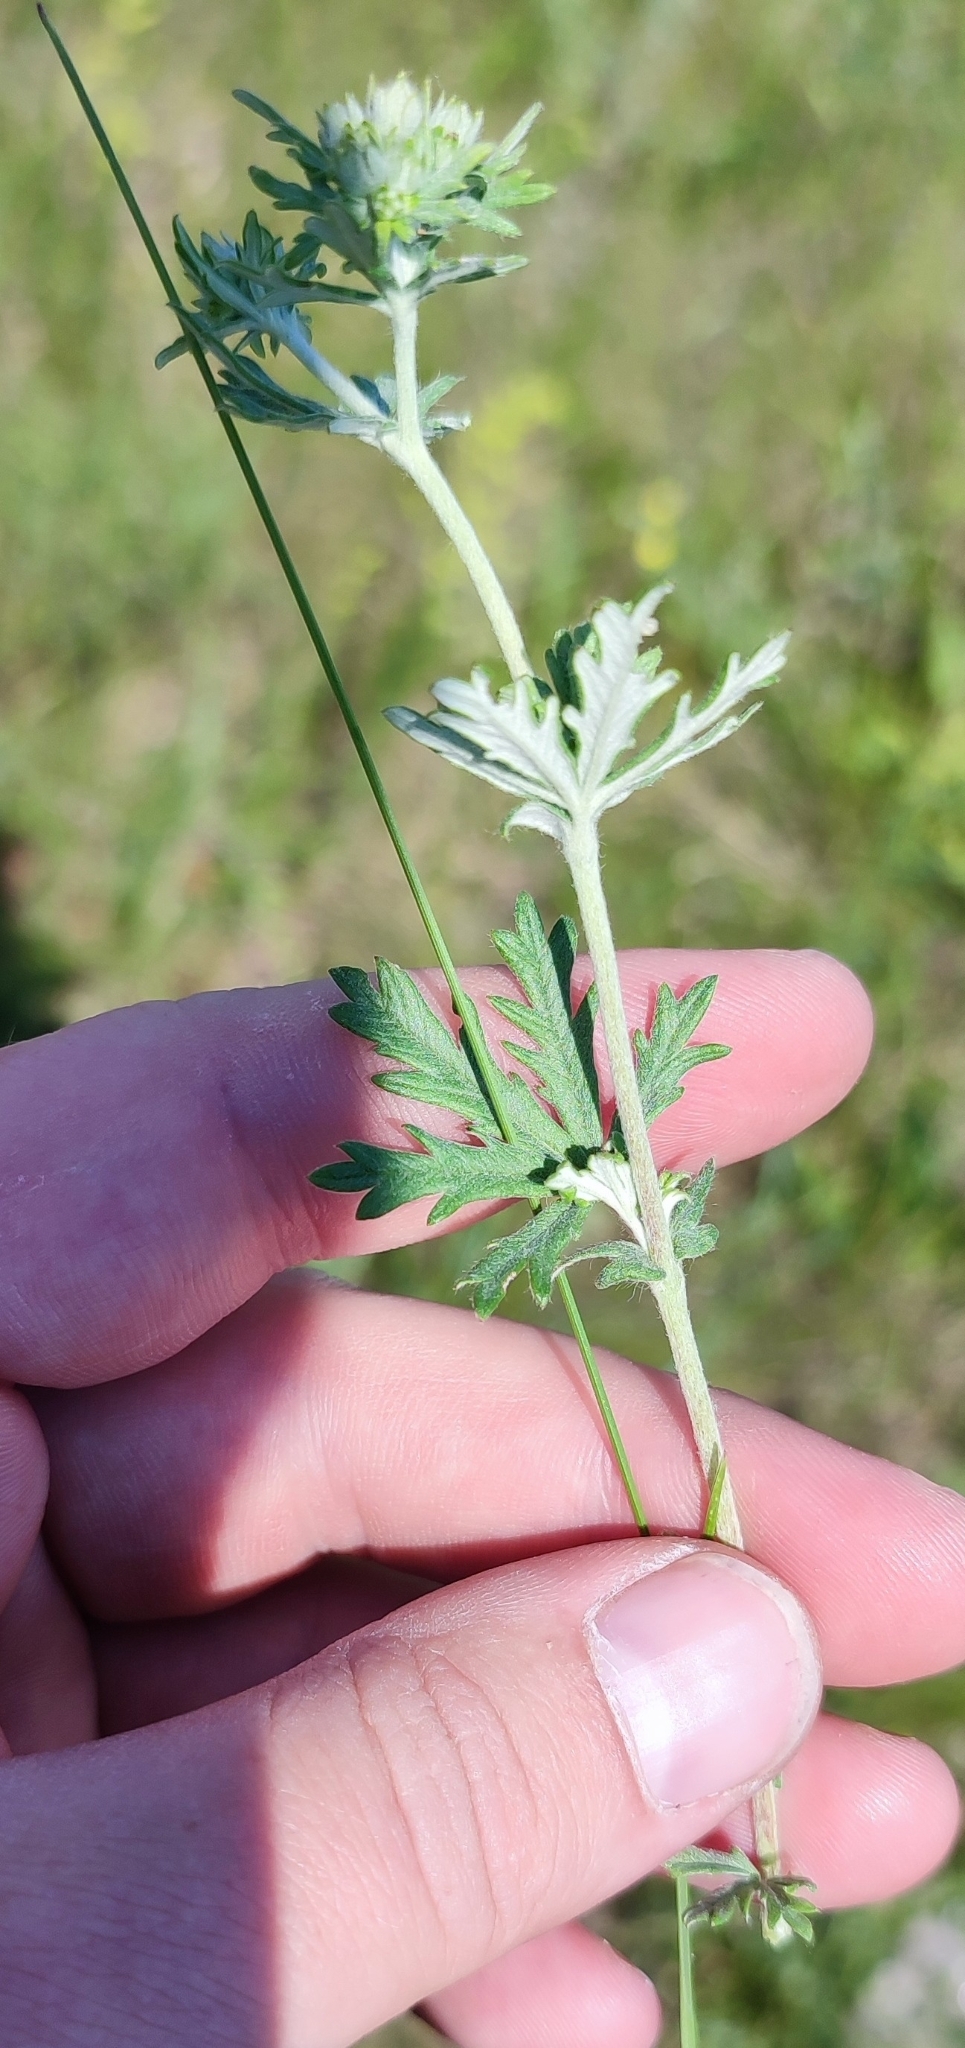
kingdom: Plantae
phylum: Tracheophyta
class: Magnoliopsida
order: Rosales
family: Rosaceae
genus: Potentilla
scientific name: Potentilla argentea
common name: Hoary cinquefoil
